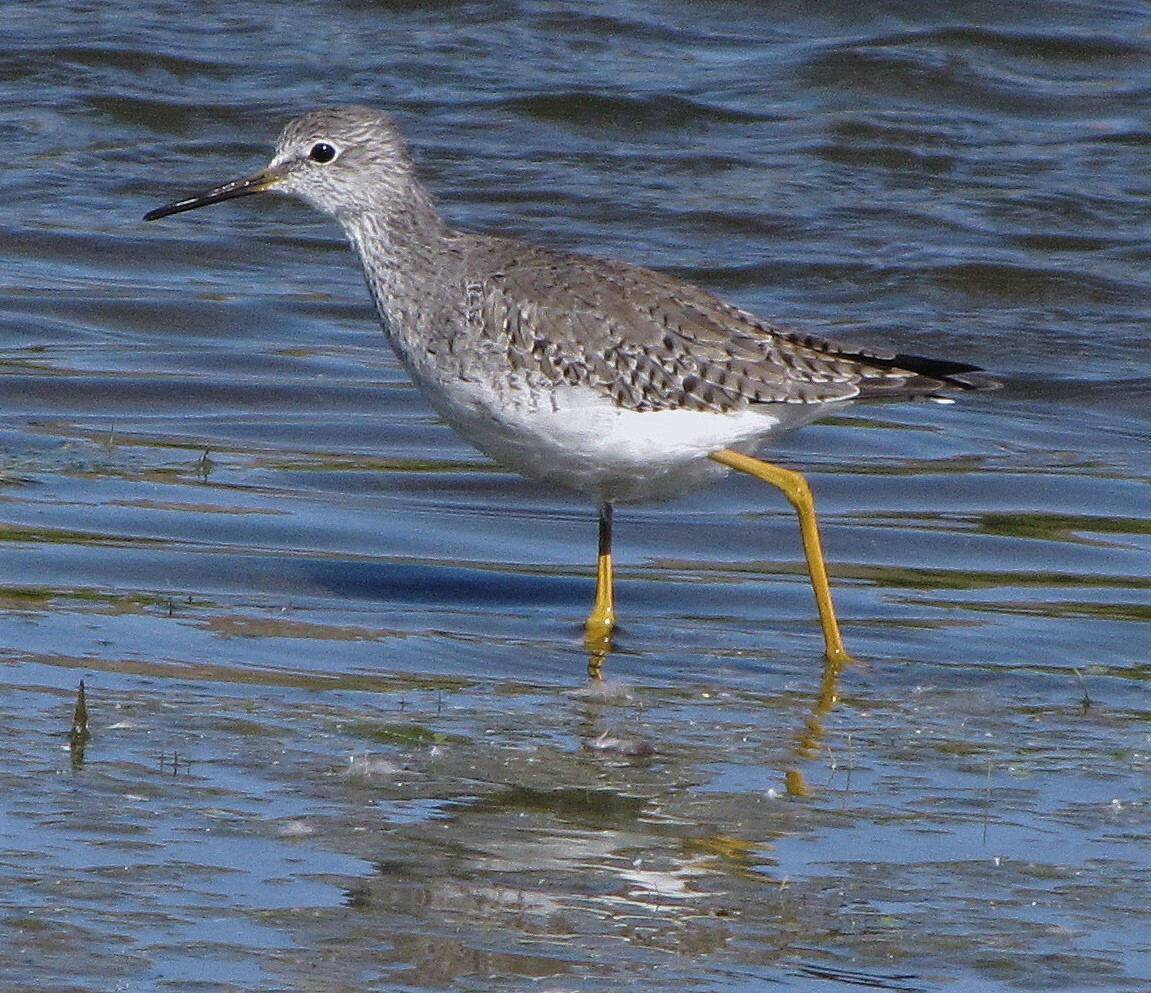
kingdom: Animalia
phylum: Chordata
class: Aves
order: Charadriiformes
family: Scolopacidae
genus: Tringa
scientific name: Tringa flavipes
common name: Lesser yellowlegs
